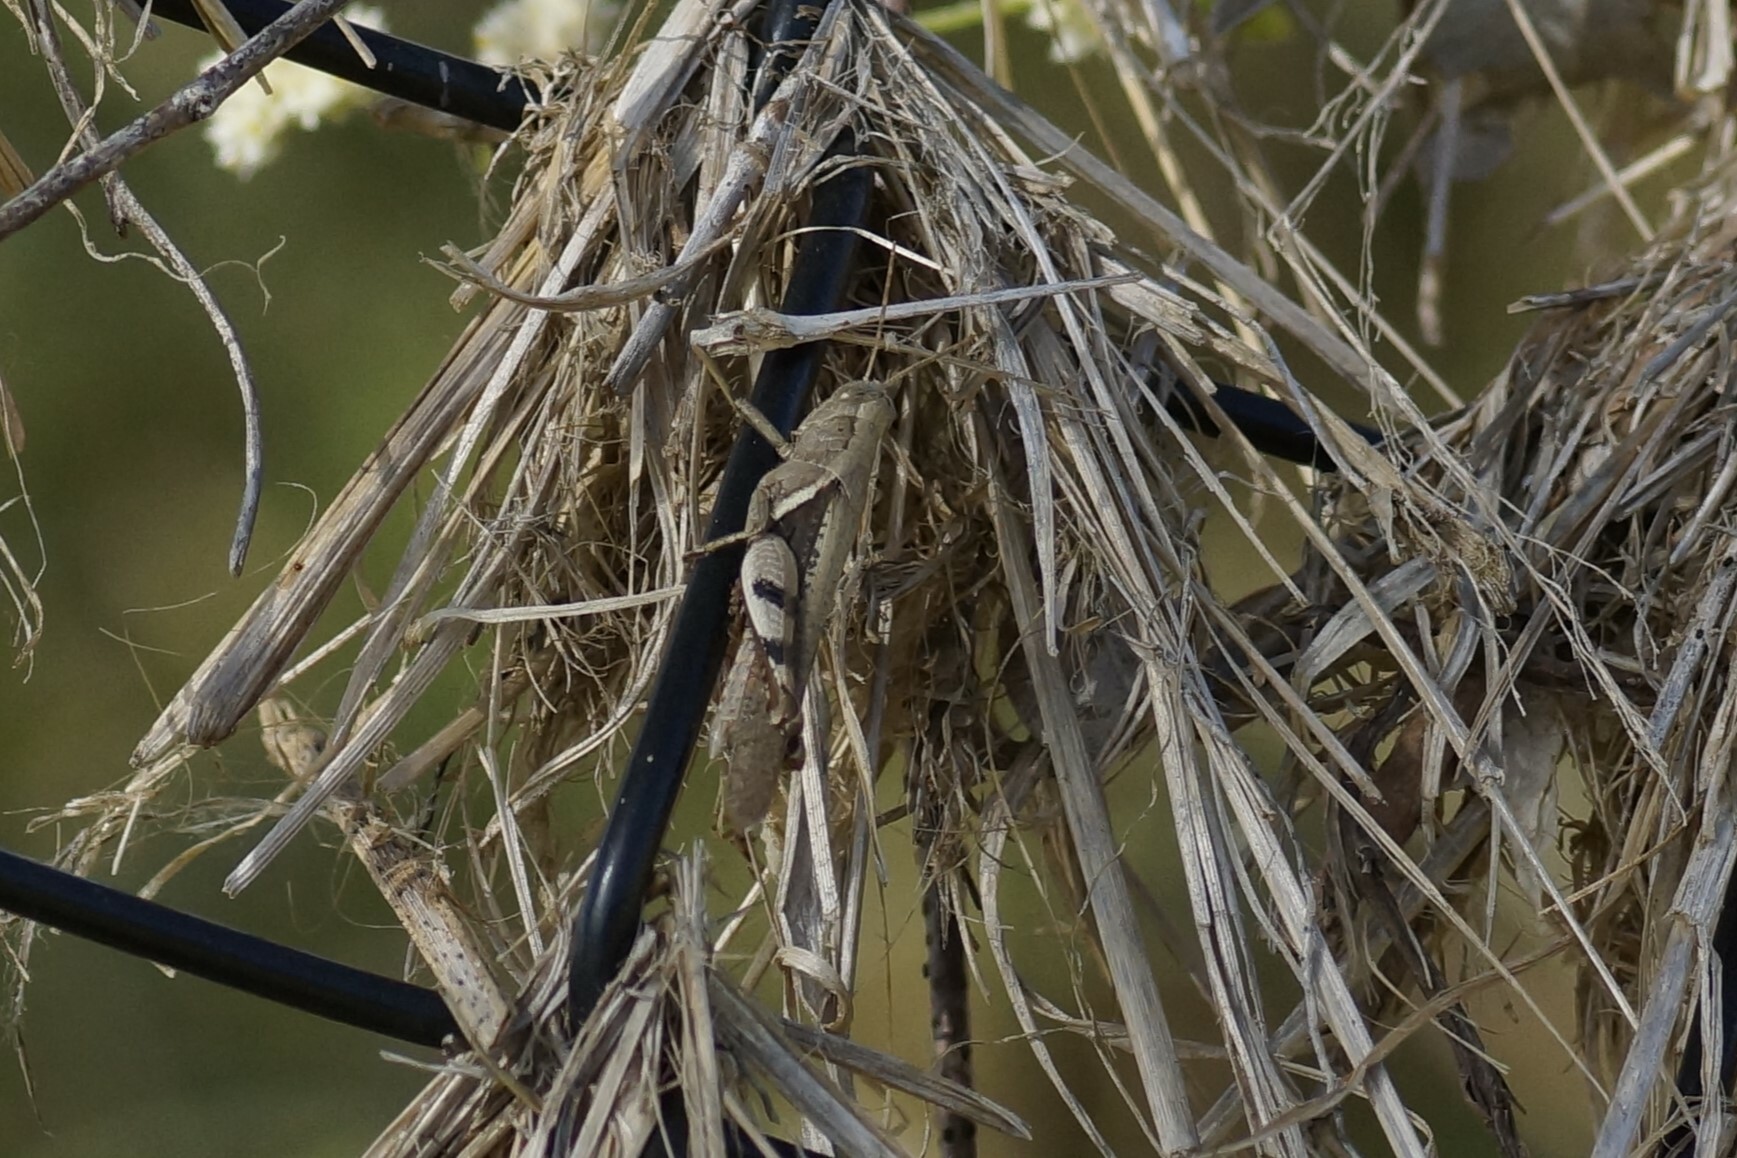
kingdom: Animalia
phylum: Arthropoda
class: Insecta
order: Orthoptera
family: Acrididae
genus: Stenocatantops
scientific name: Stenocatantops angustifrons
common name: Common tropical sharptail
